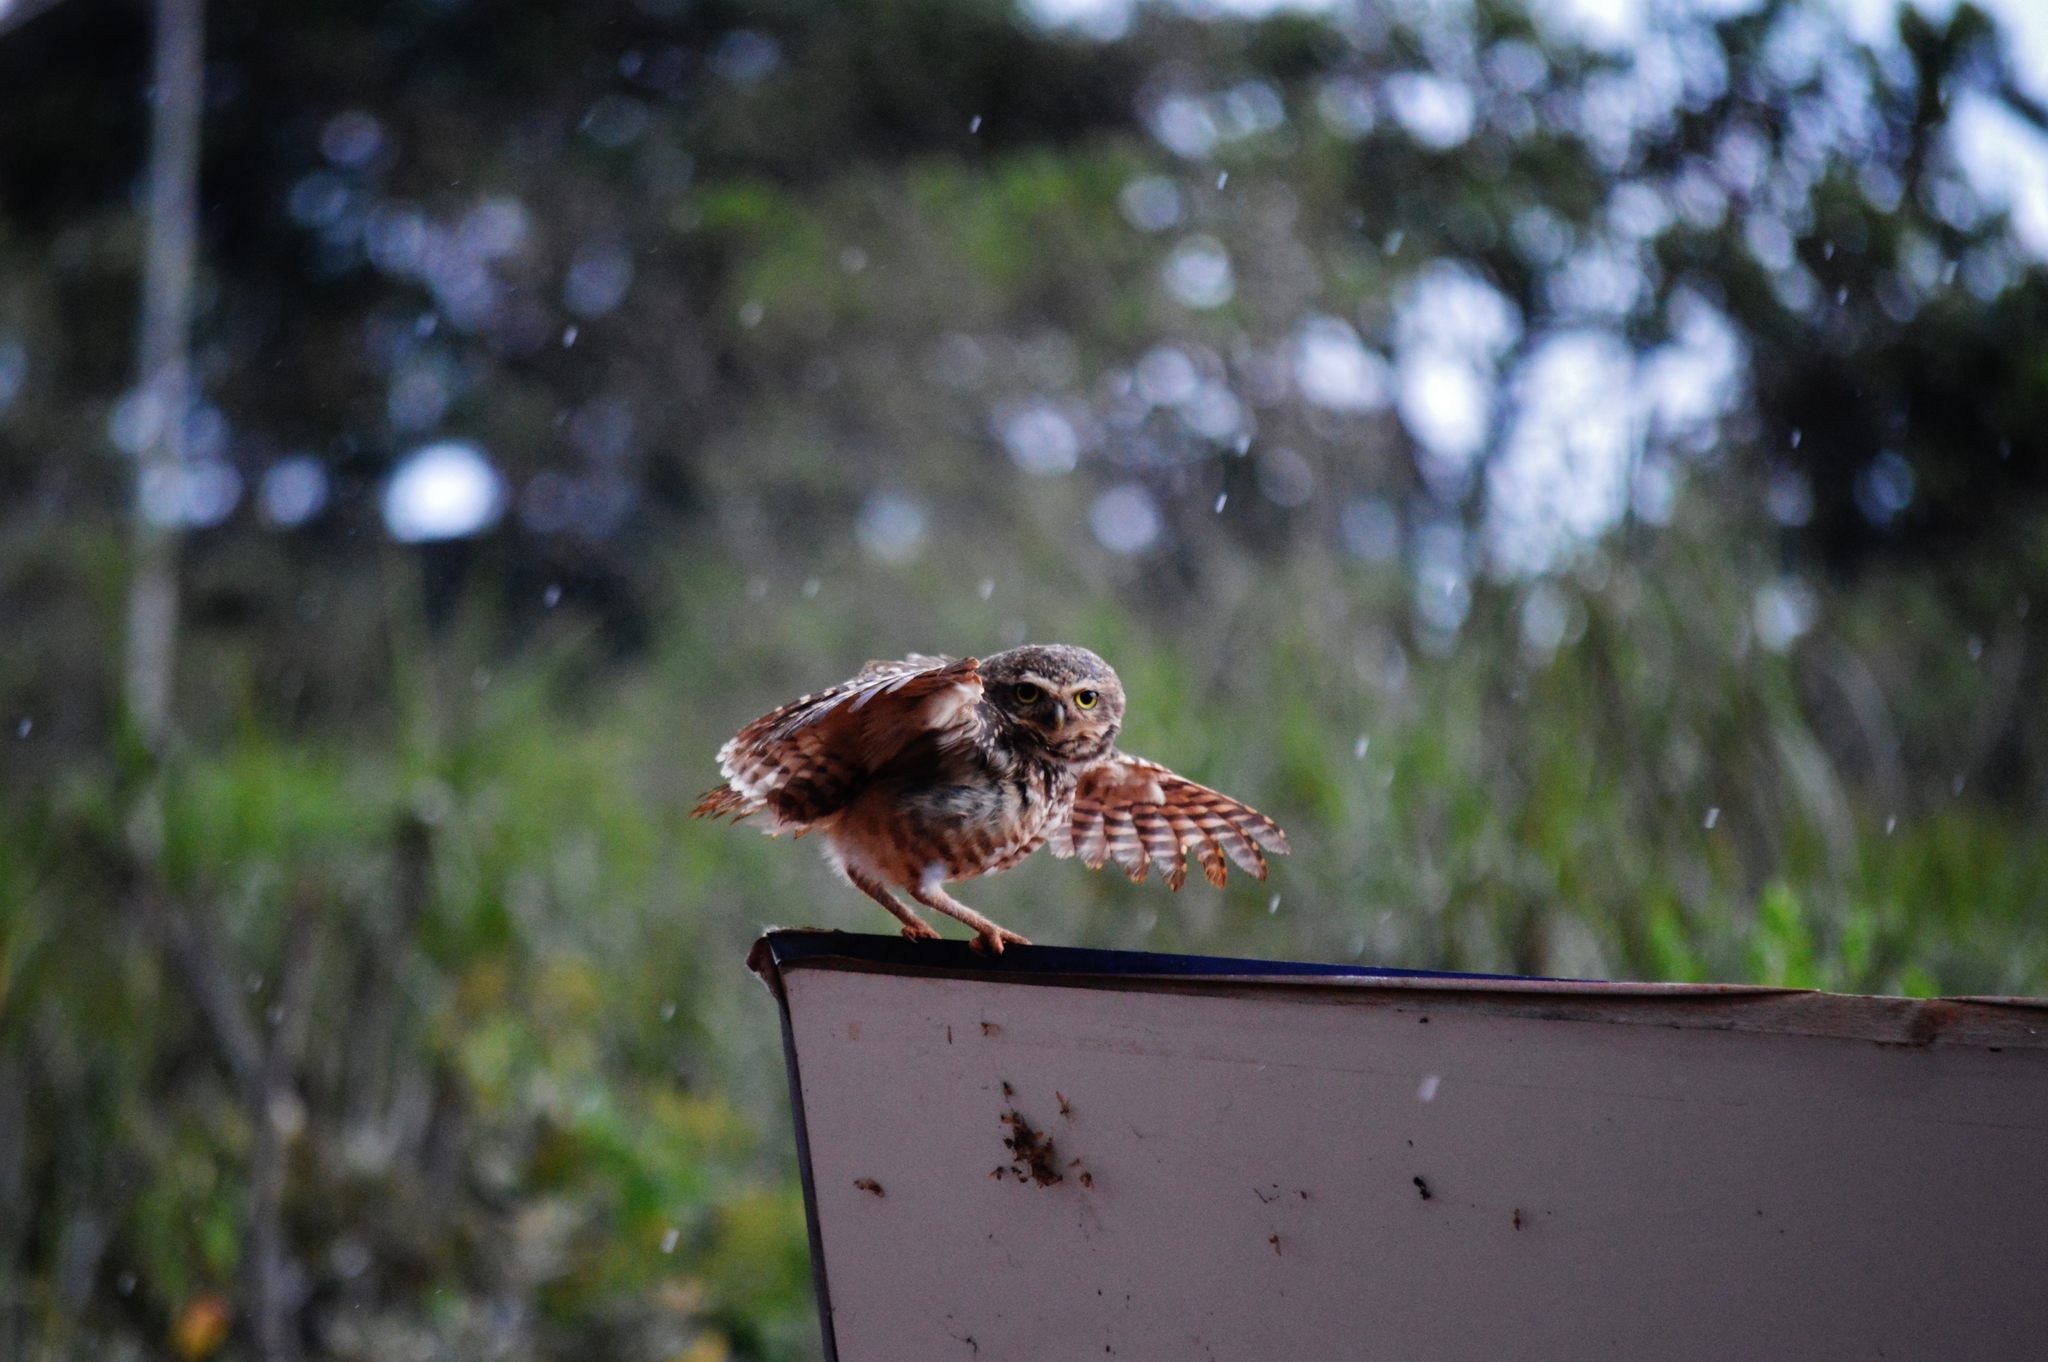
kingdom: Animalia
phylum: Chordata
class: Aves
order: Strigiformes
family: Strigidae
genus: Athene
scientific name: Athene cunicularia
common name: Burrowing owl
